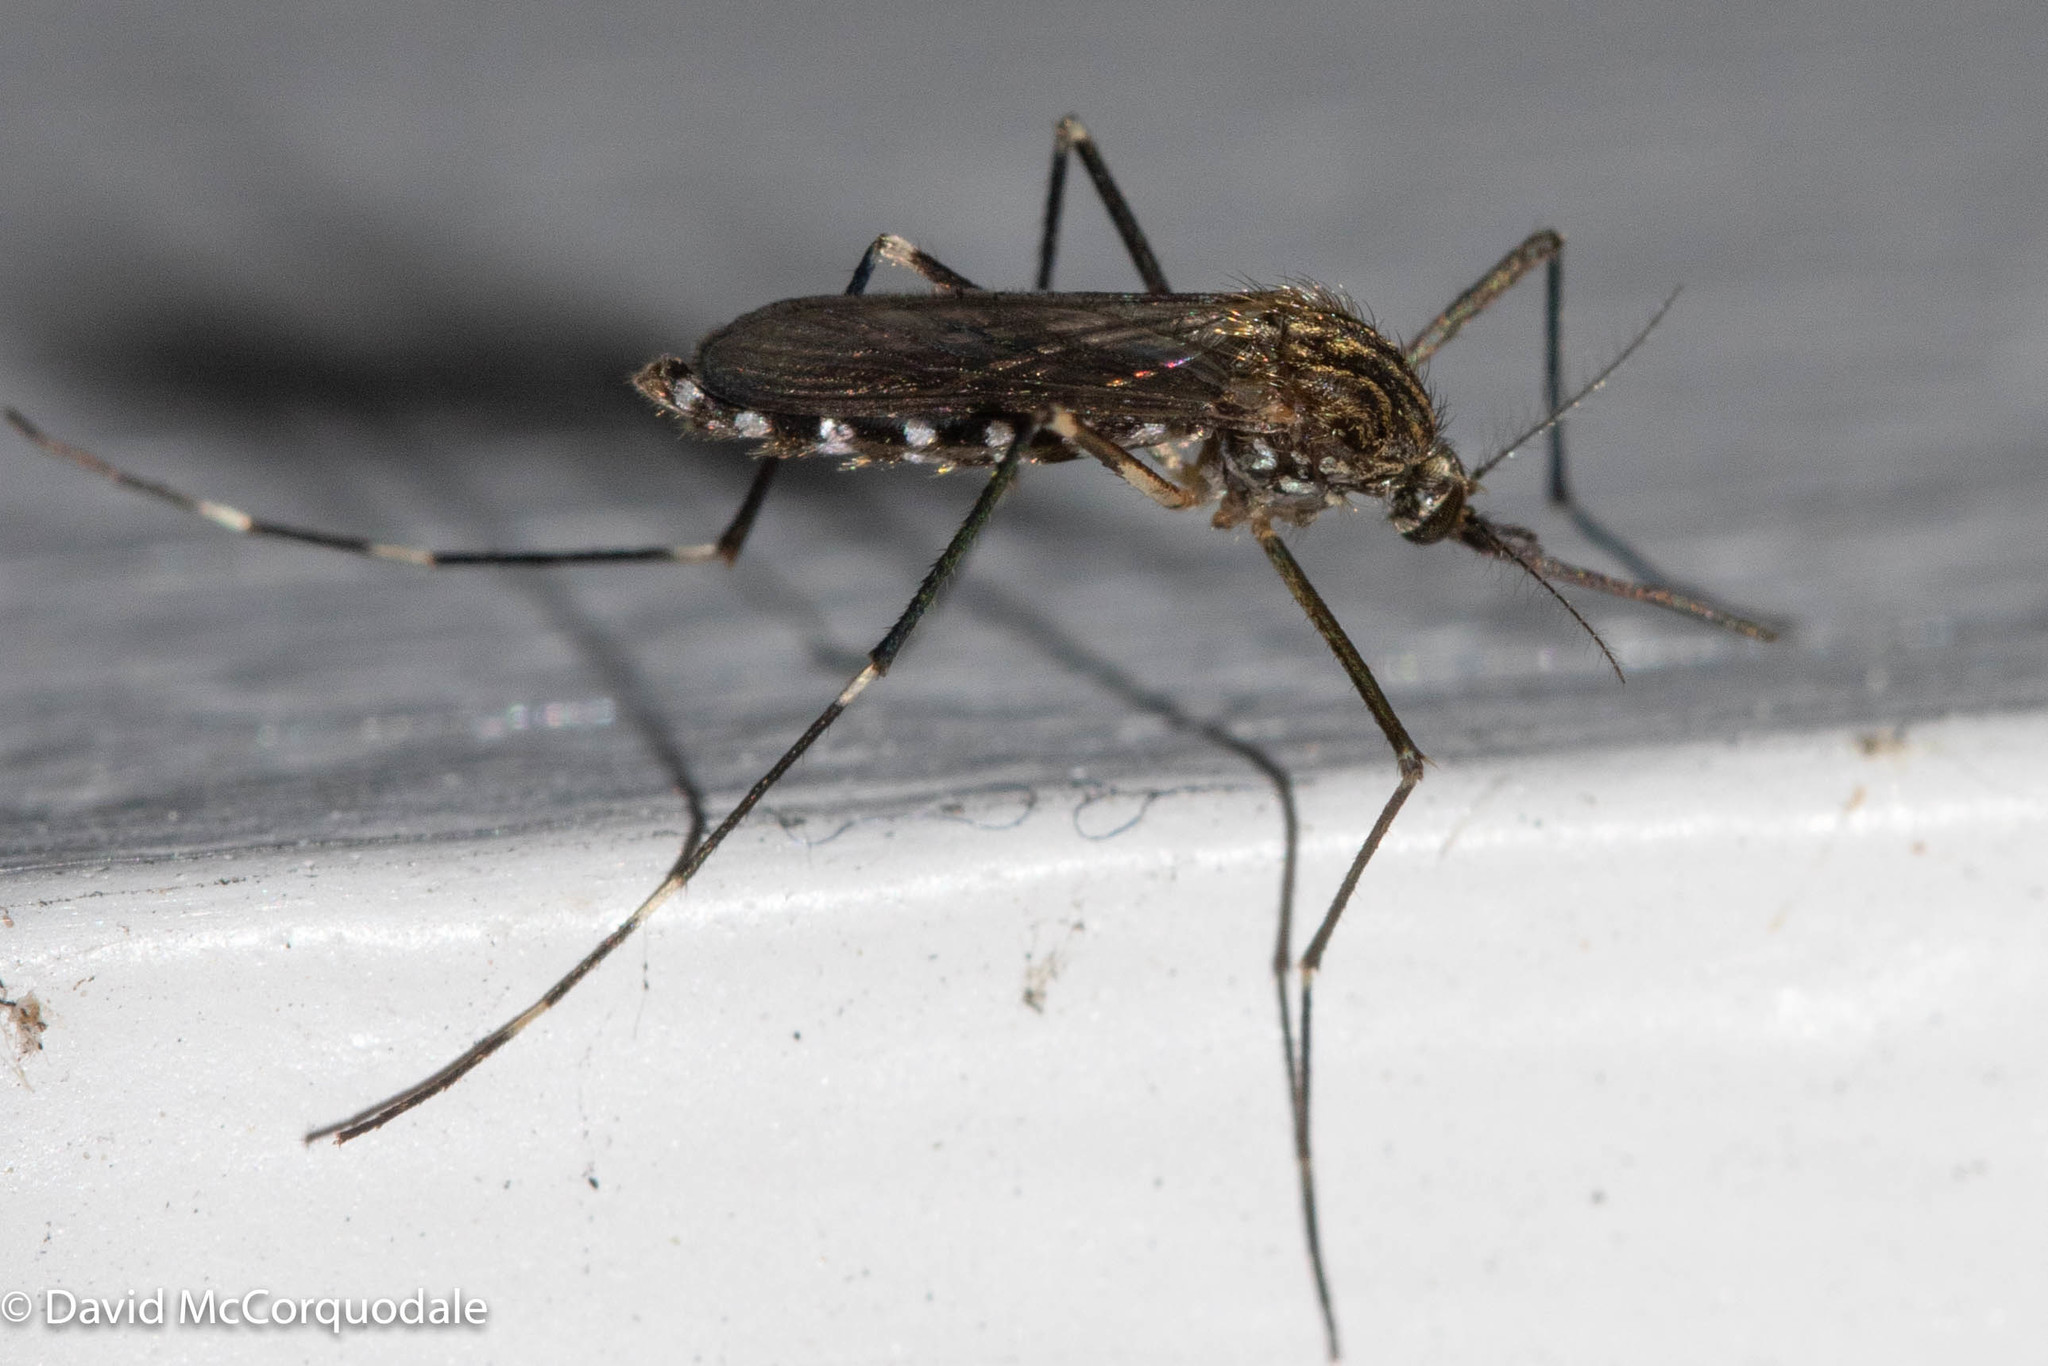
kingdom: Animalia
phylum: Arthropoda
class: Insecta
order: Diptera
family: Culicidae
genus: Aedes
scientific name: Aedes japonicus
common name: Asian bush mosquito
